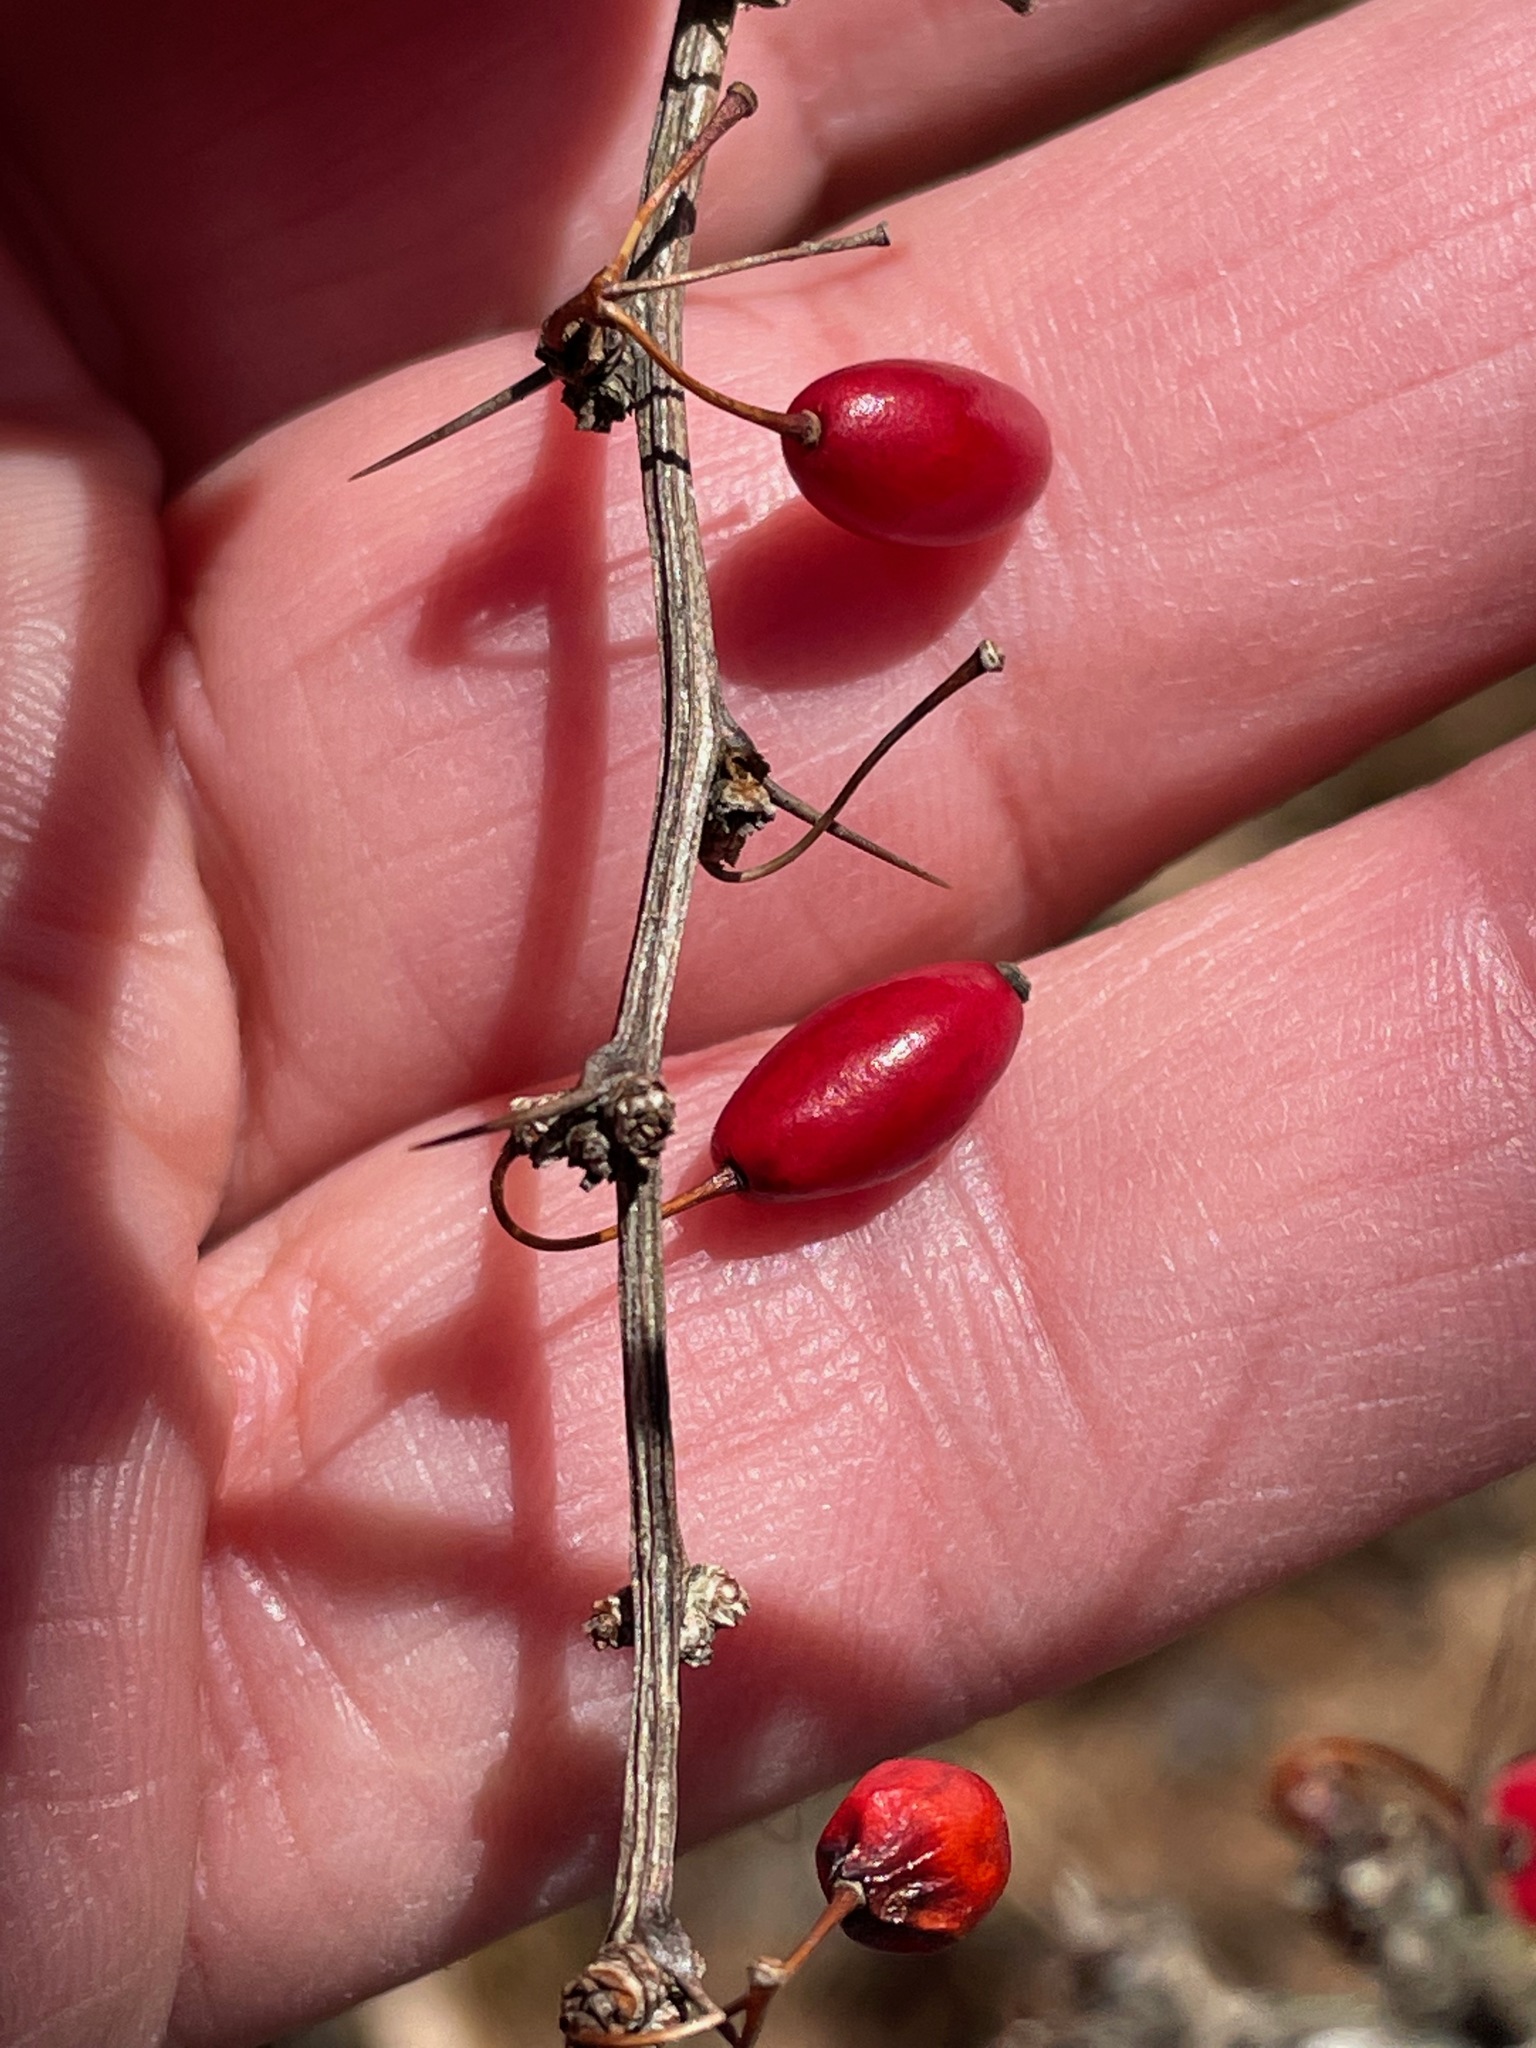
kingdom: Plantae
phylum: Tracheophyta
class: Magnoliopsida
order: Ranunculales
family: Berberidaceae
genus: Berberis
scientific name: Berberis thunbergii
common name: Japanese barberry
